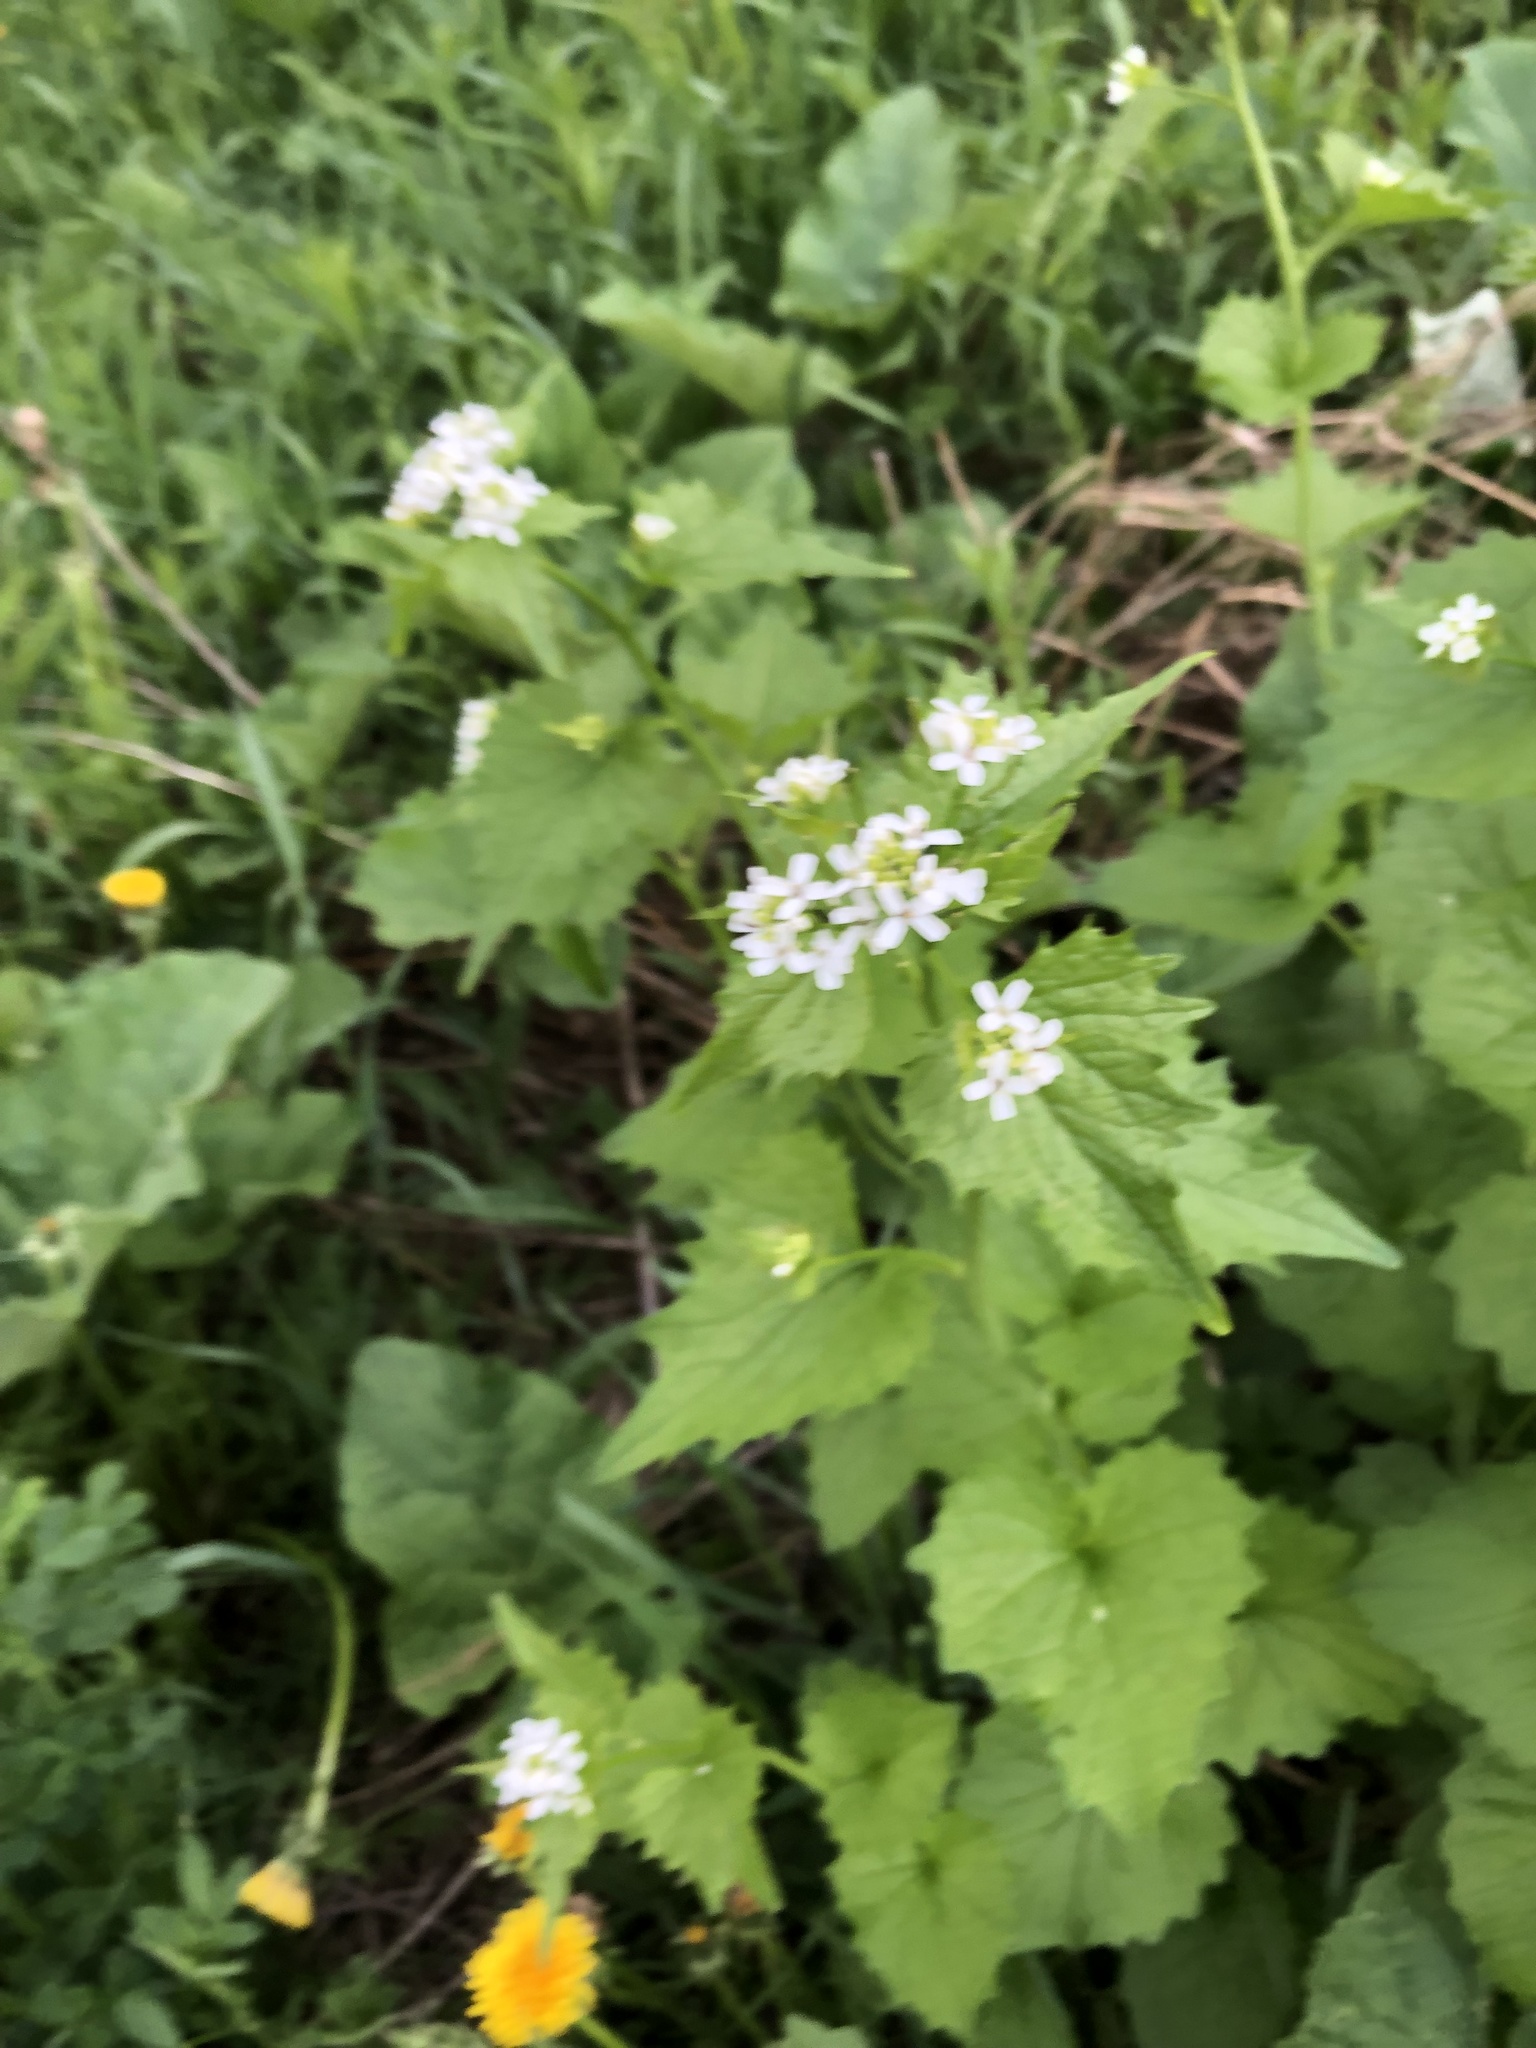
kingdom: Plantae
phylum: Tracheophyta
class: Magnoliopsida
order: Brassicales
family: Brassicaceae
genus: Alliaria
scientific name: Alliaria petiolata
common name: Garlic mustard
